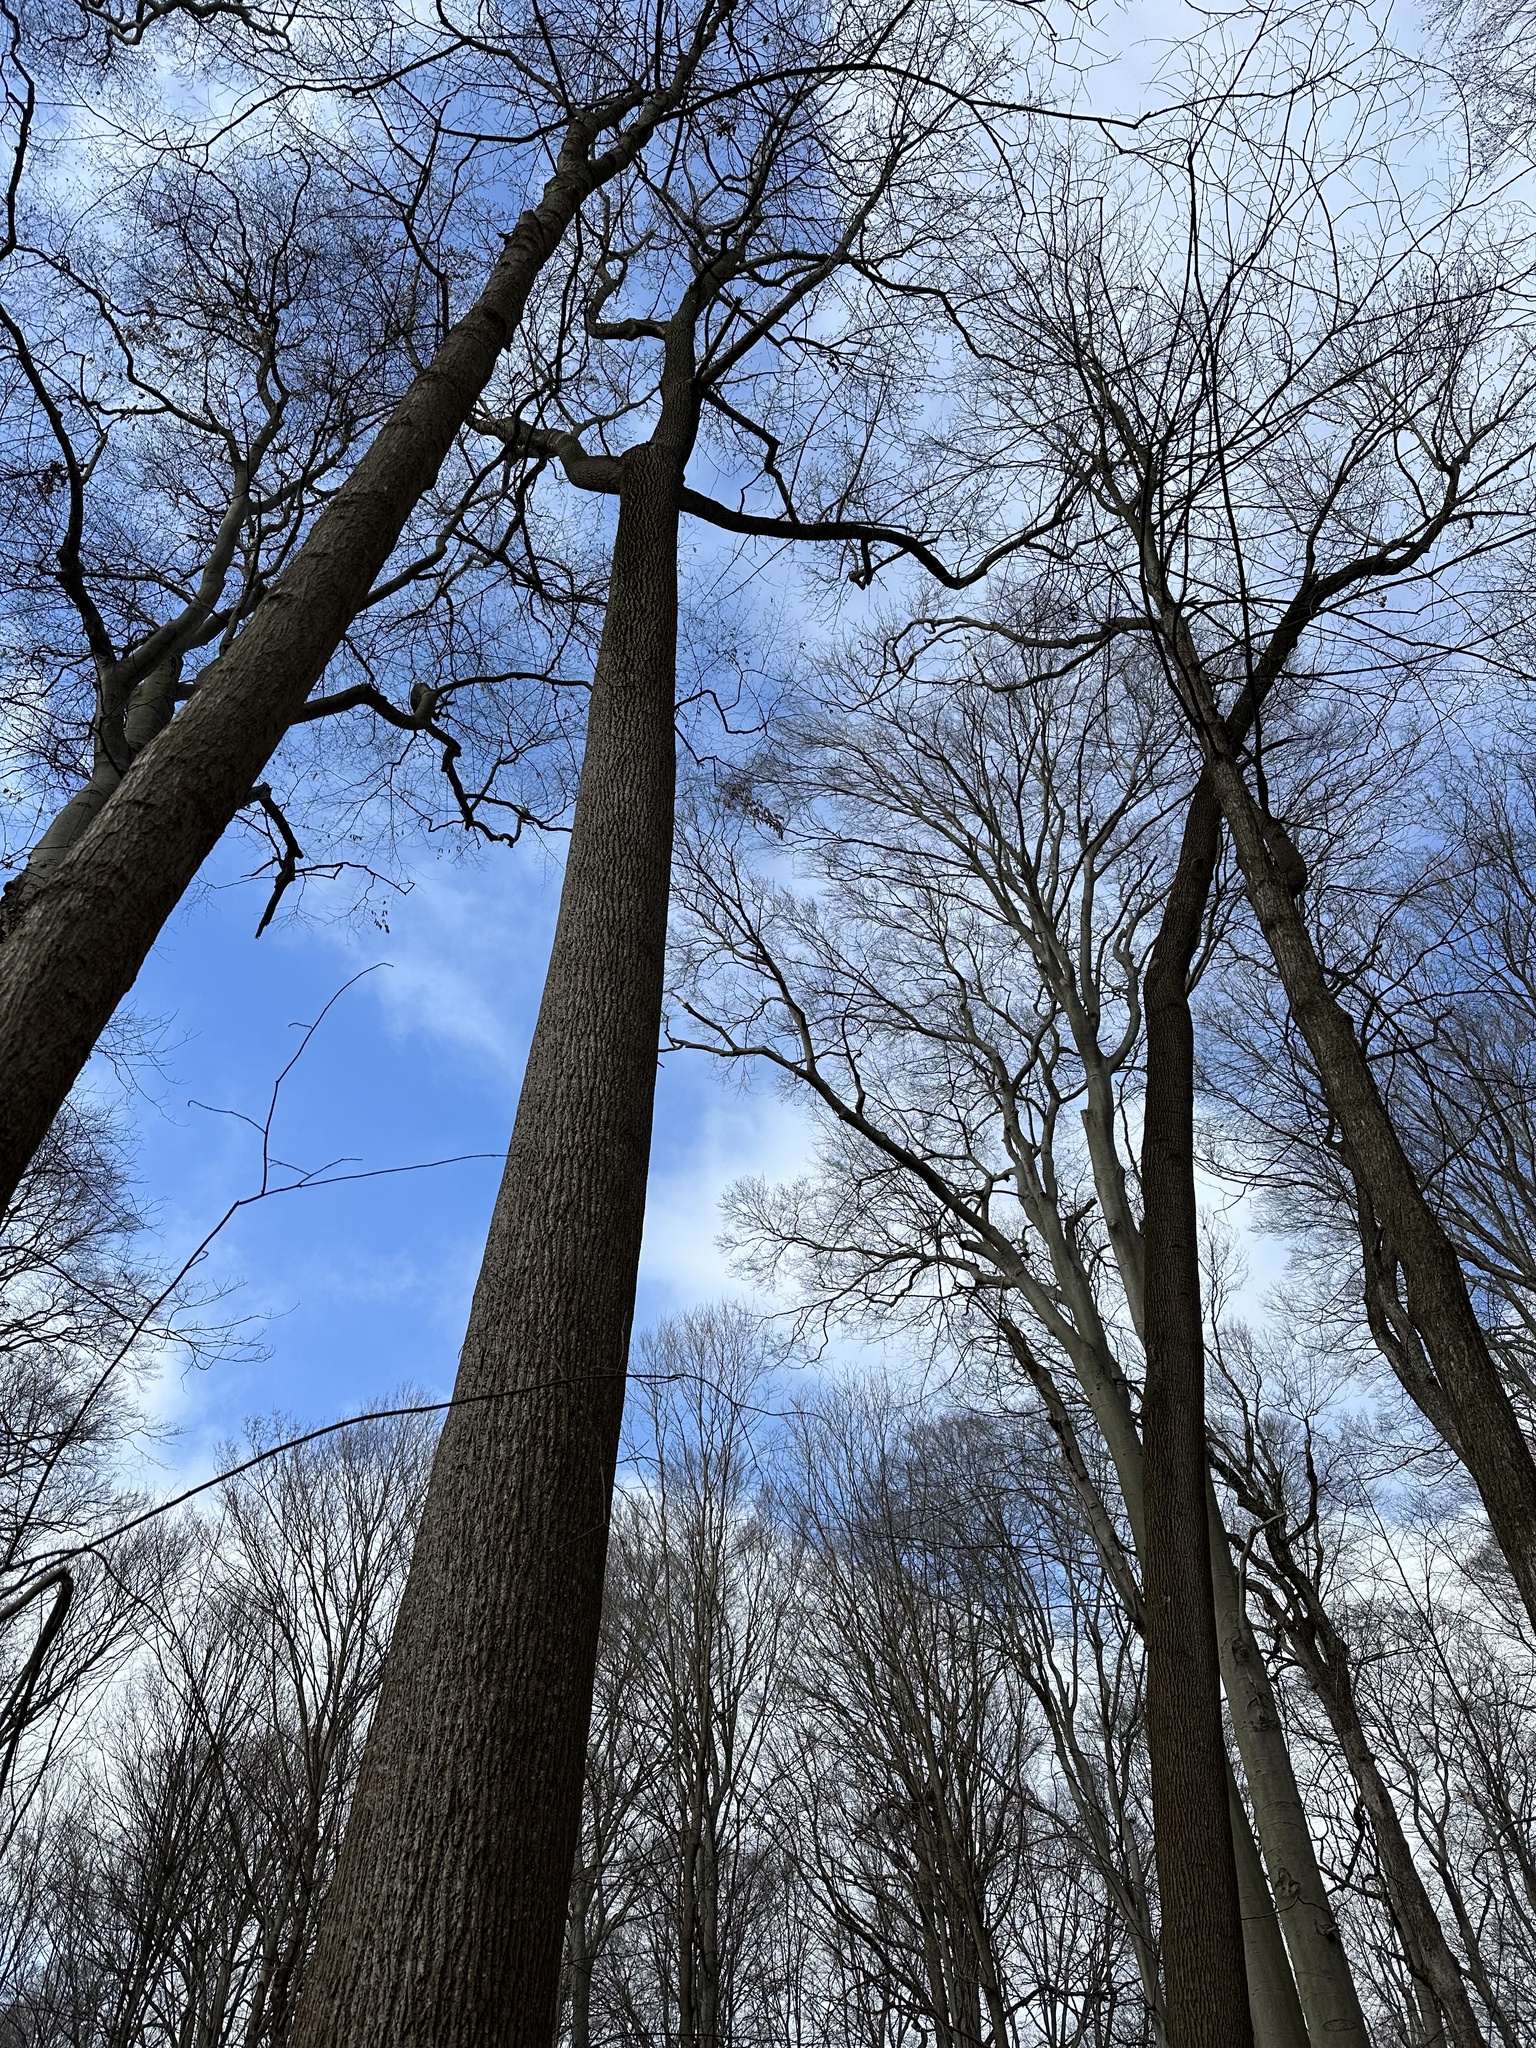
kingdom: Plantae
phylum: Tracheophyta
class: Magnoliopsida
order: Magnoliales
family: Magnoliaceae
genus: Liriodendron
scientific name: Liriodendron tulipifera
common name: Tulip tree
